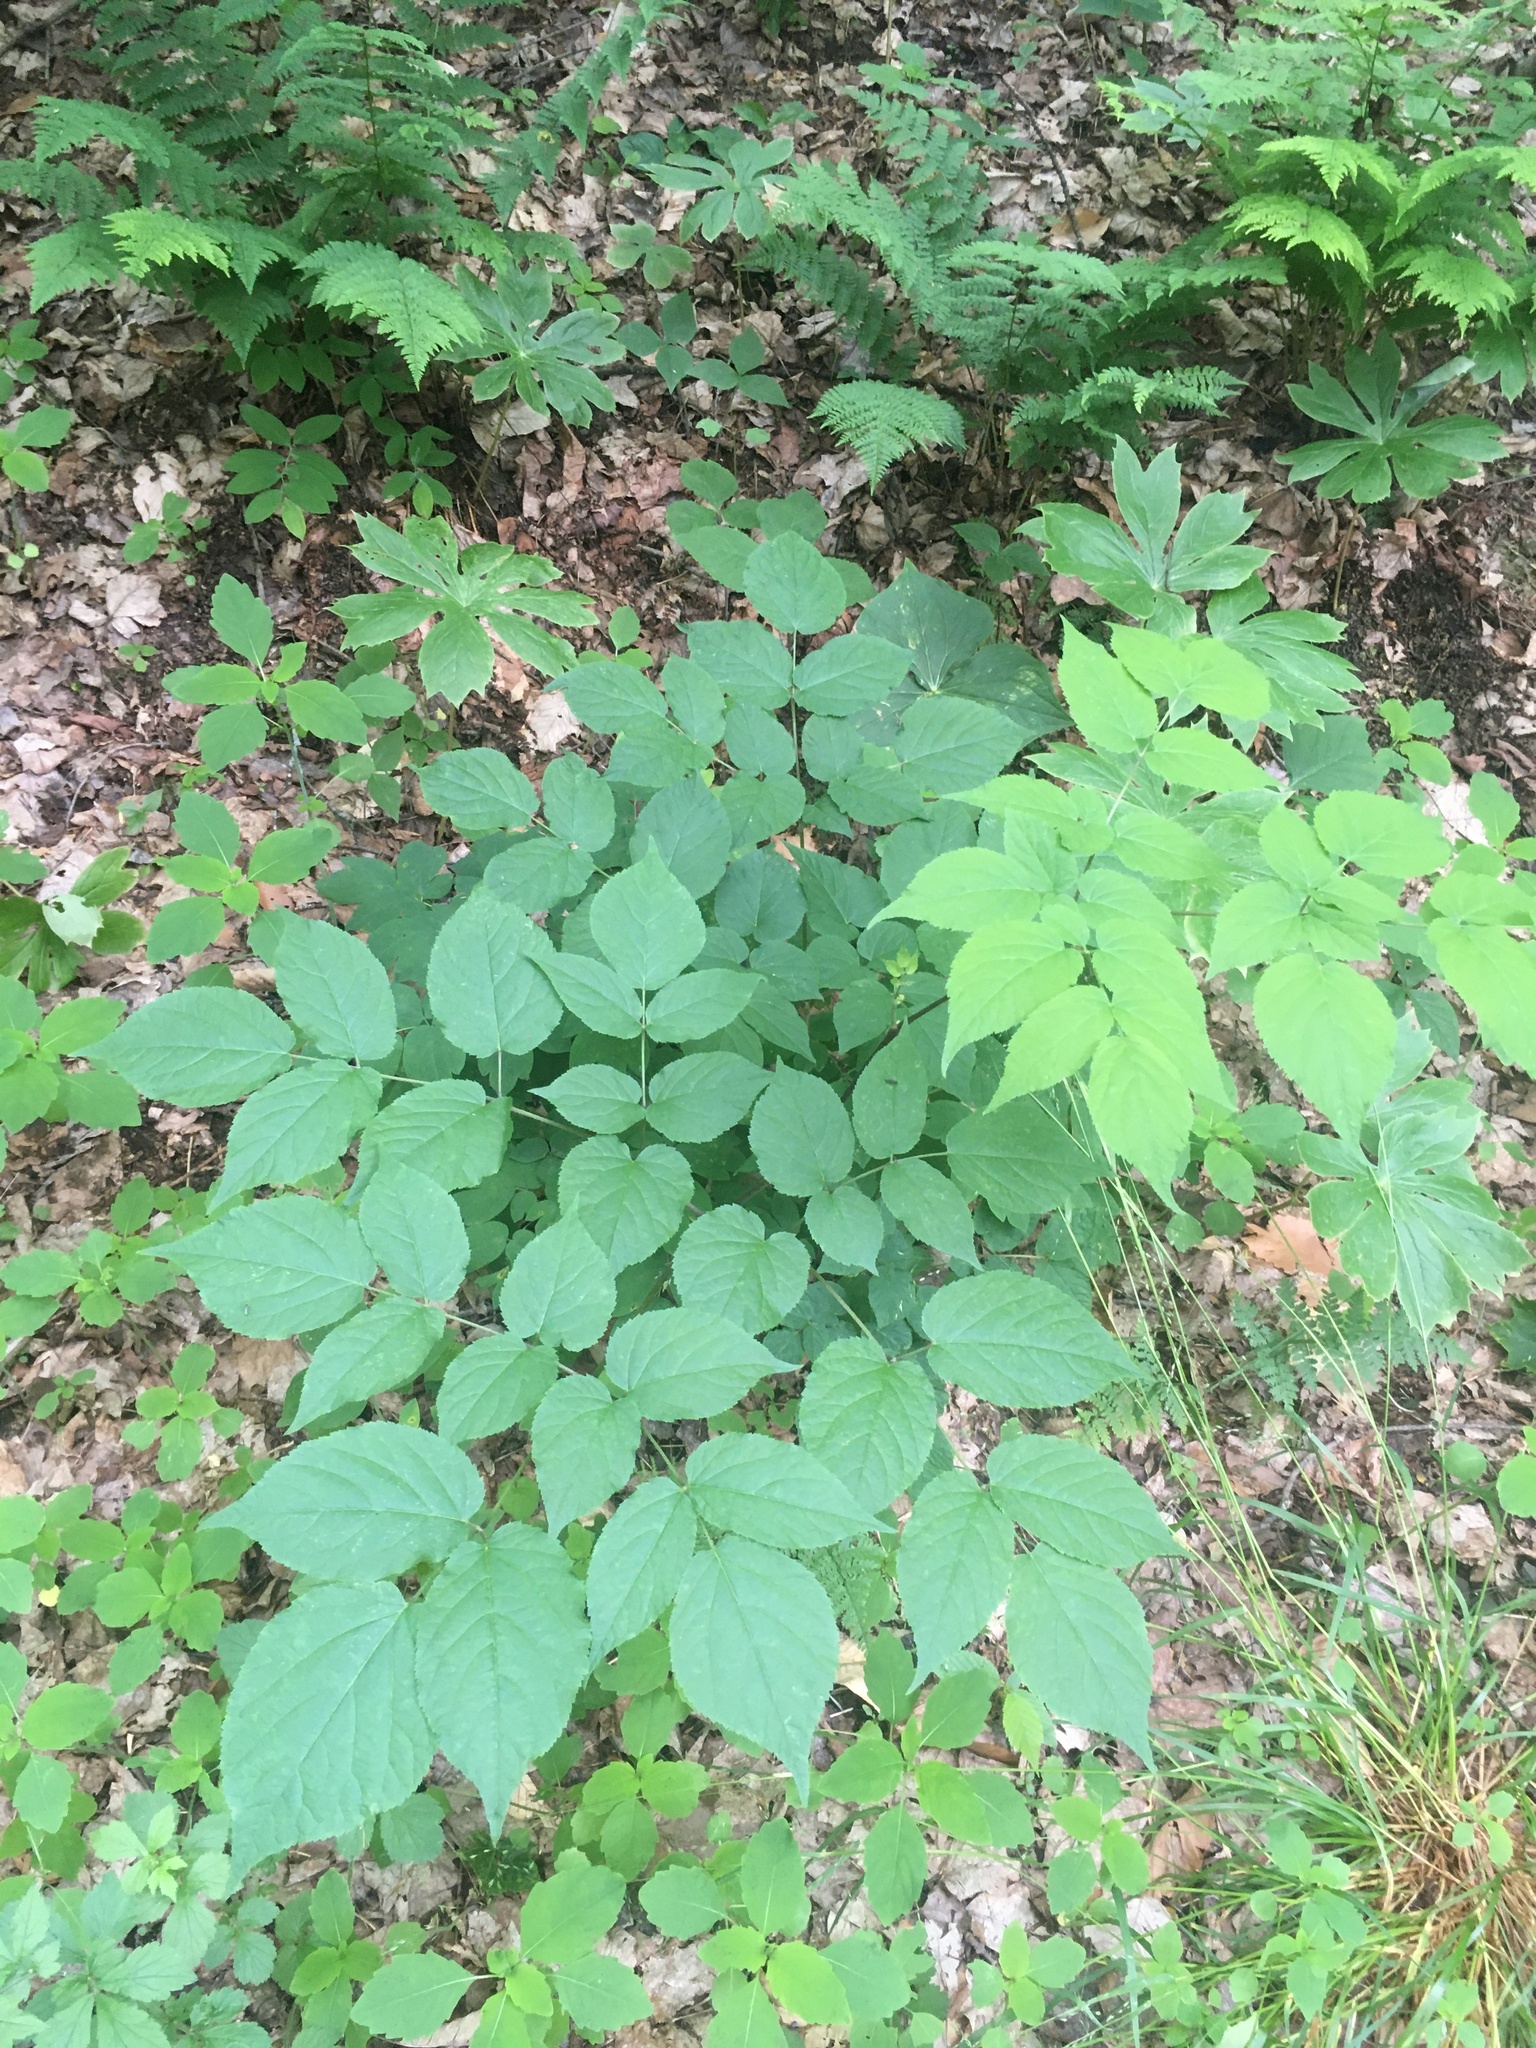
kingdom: Plantae
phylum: Tracheophyta
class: Magnoliopsida
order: Apiales
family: Araliaceae
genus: Aralia
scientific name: Aralia racemosa
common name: American-spikenard
